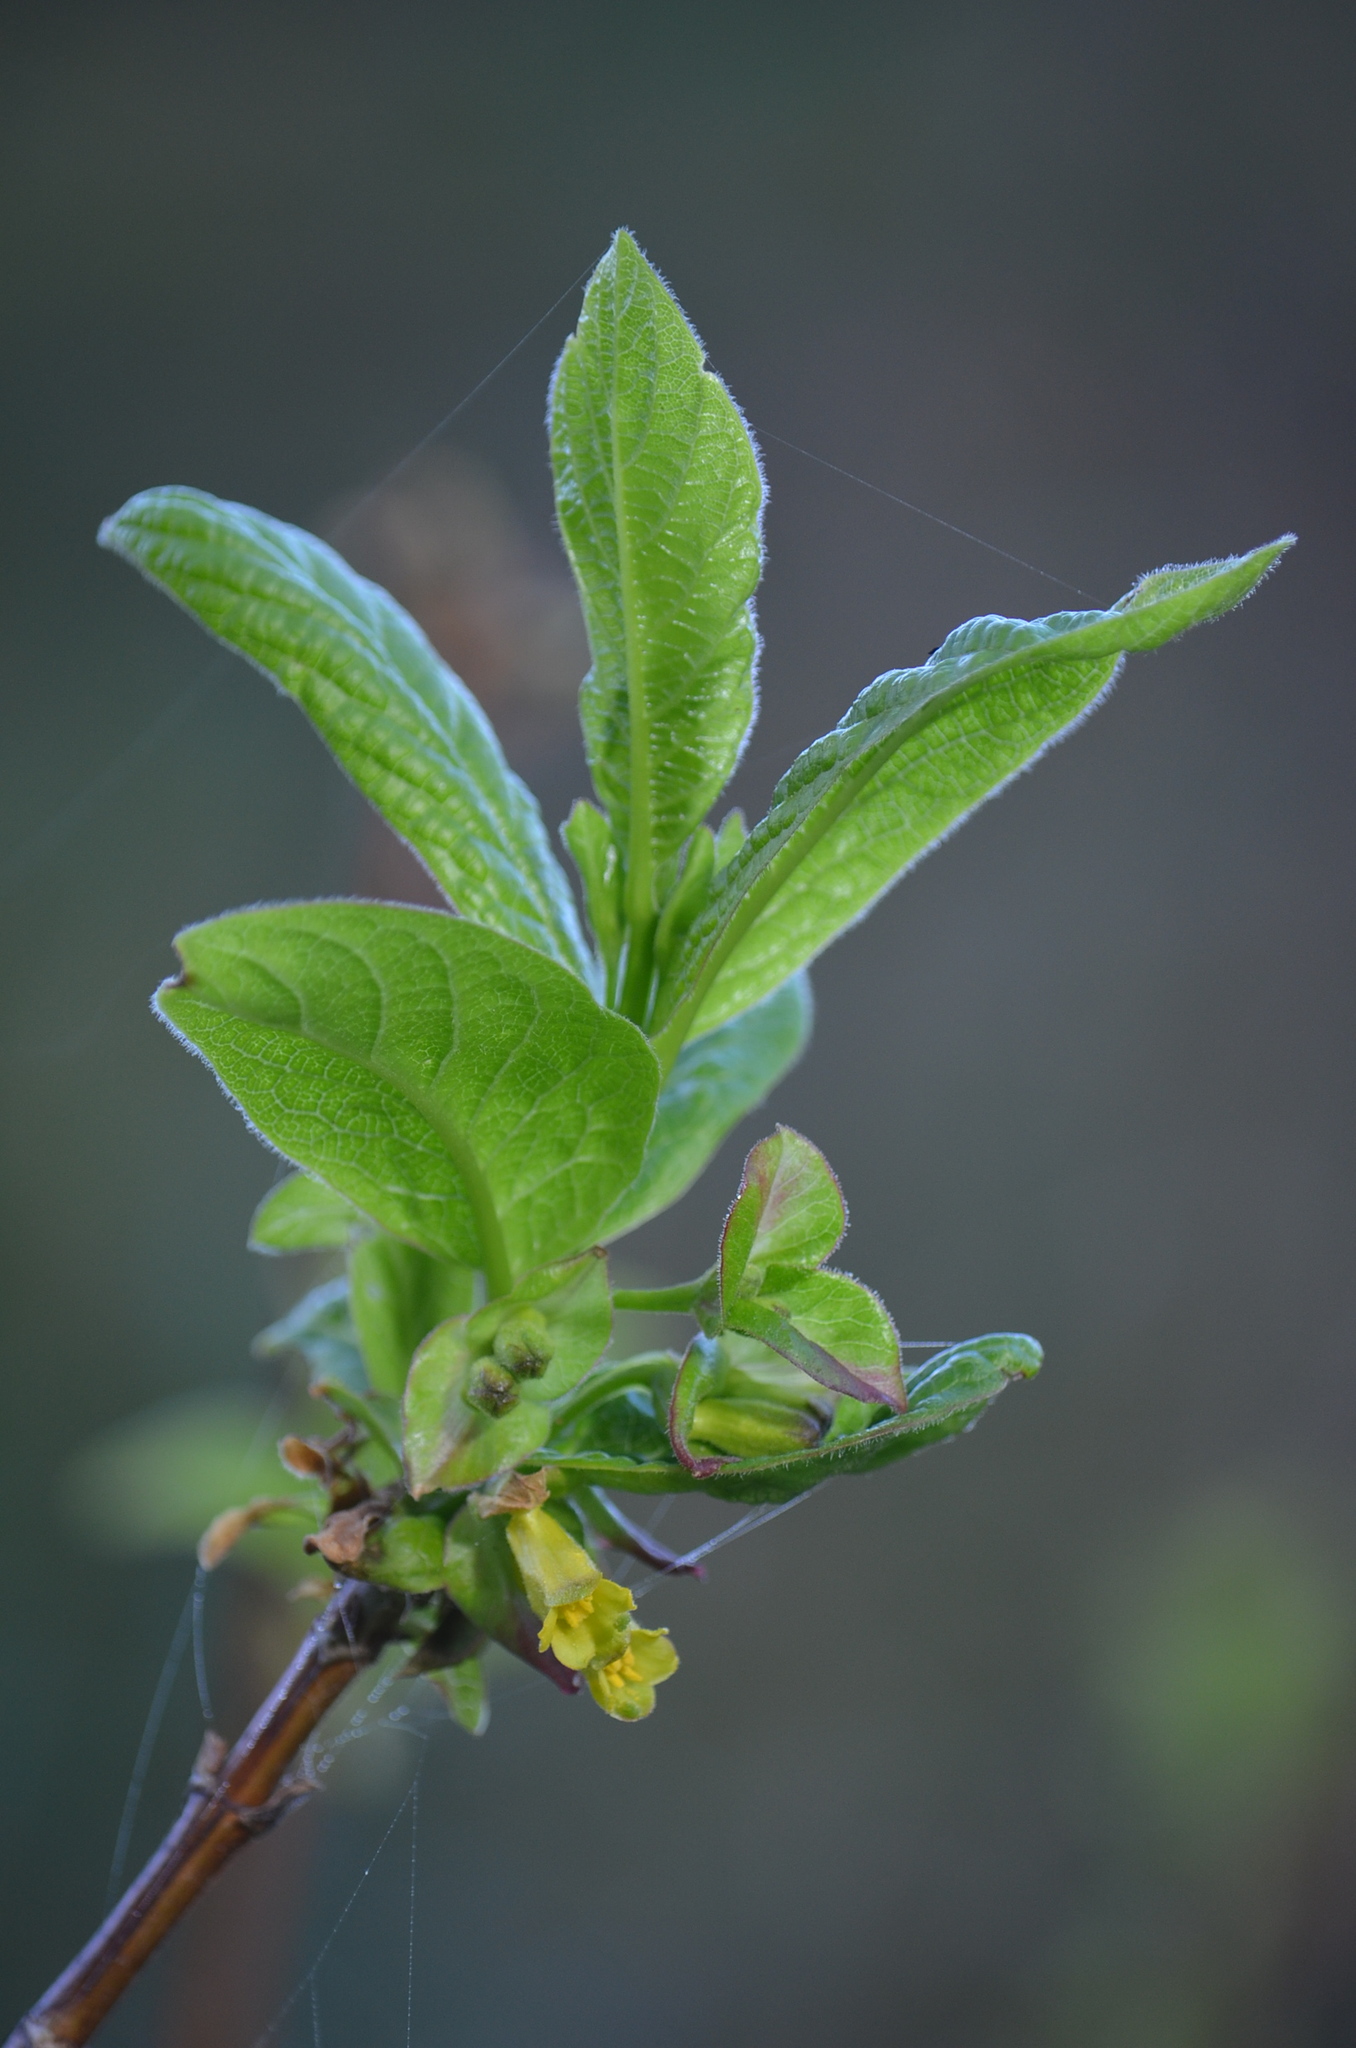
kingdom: Plantae
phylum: Tracheophyta
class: Magnoliopsida
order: Dipsacales
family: Caprifoliaceae
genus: Lonicera
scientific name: Lonicera involucrata
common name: Californian honeysuckle
